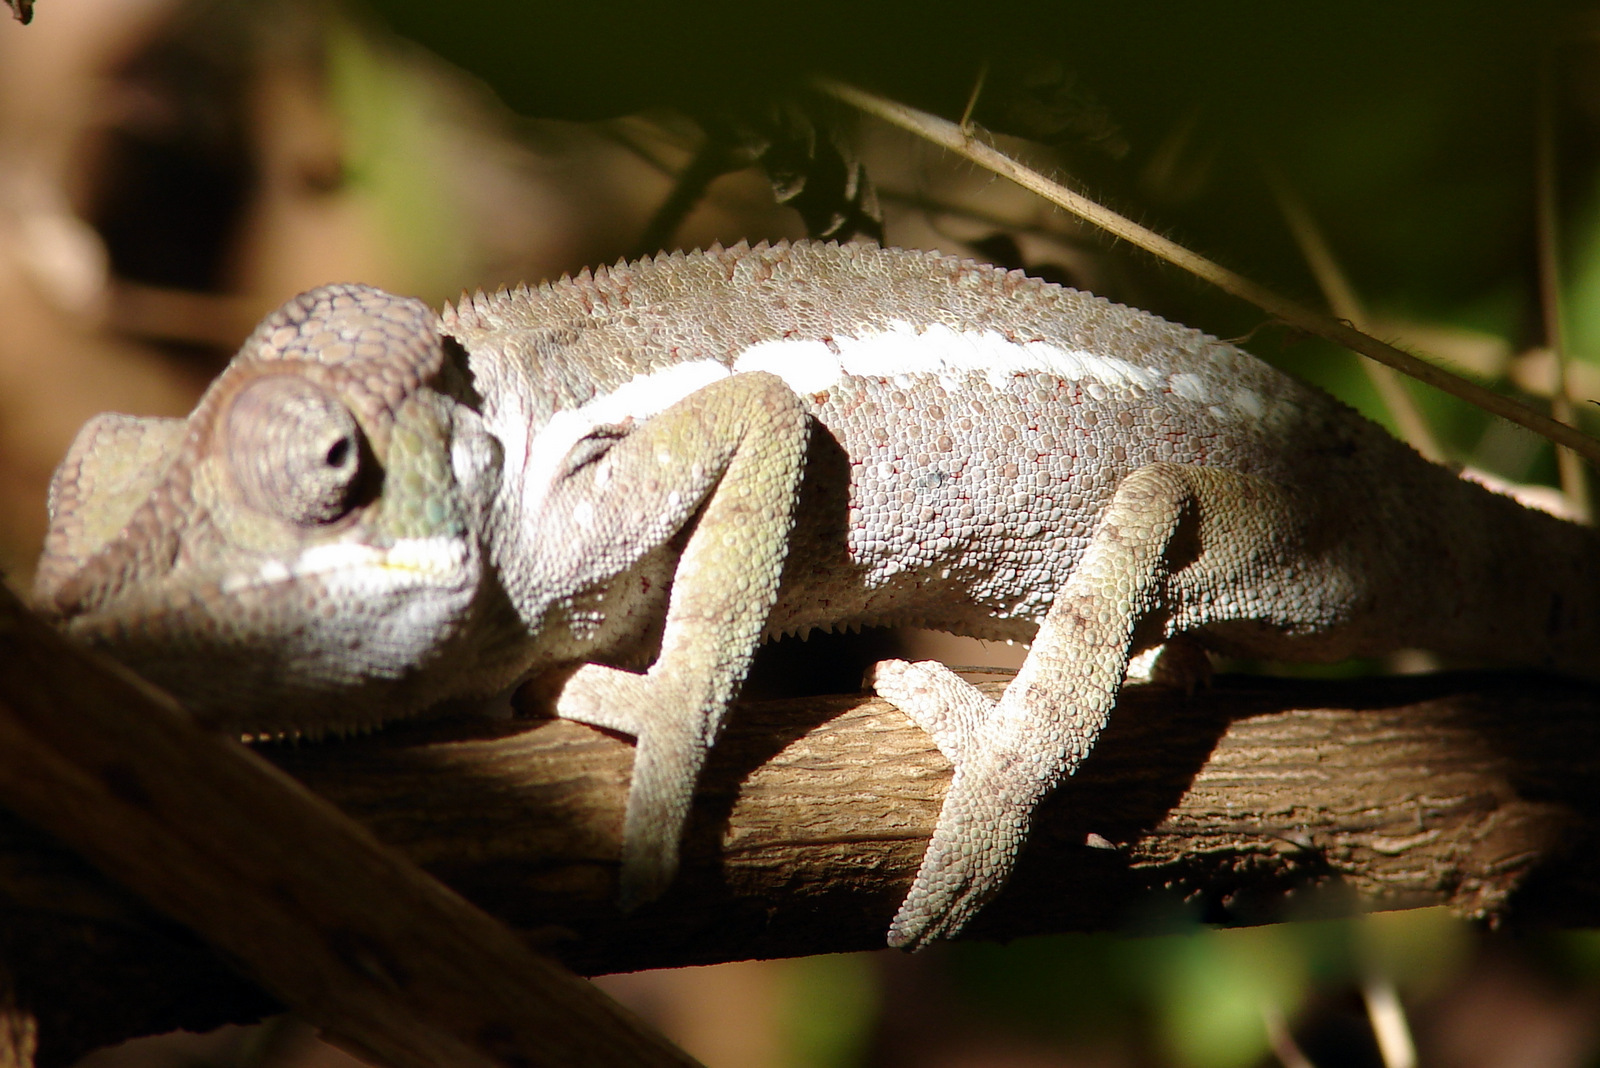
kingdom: Animalia
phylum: Chordata
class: Squamata
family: Chamaeleonidae
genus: Furcifer
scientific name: Furcifer pardalis
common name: Panther chameleon
